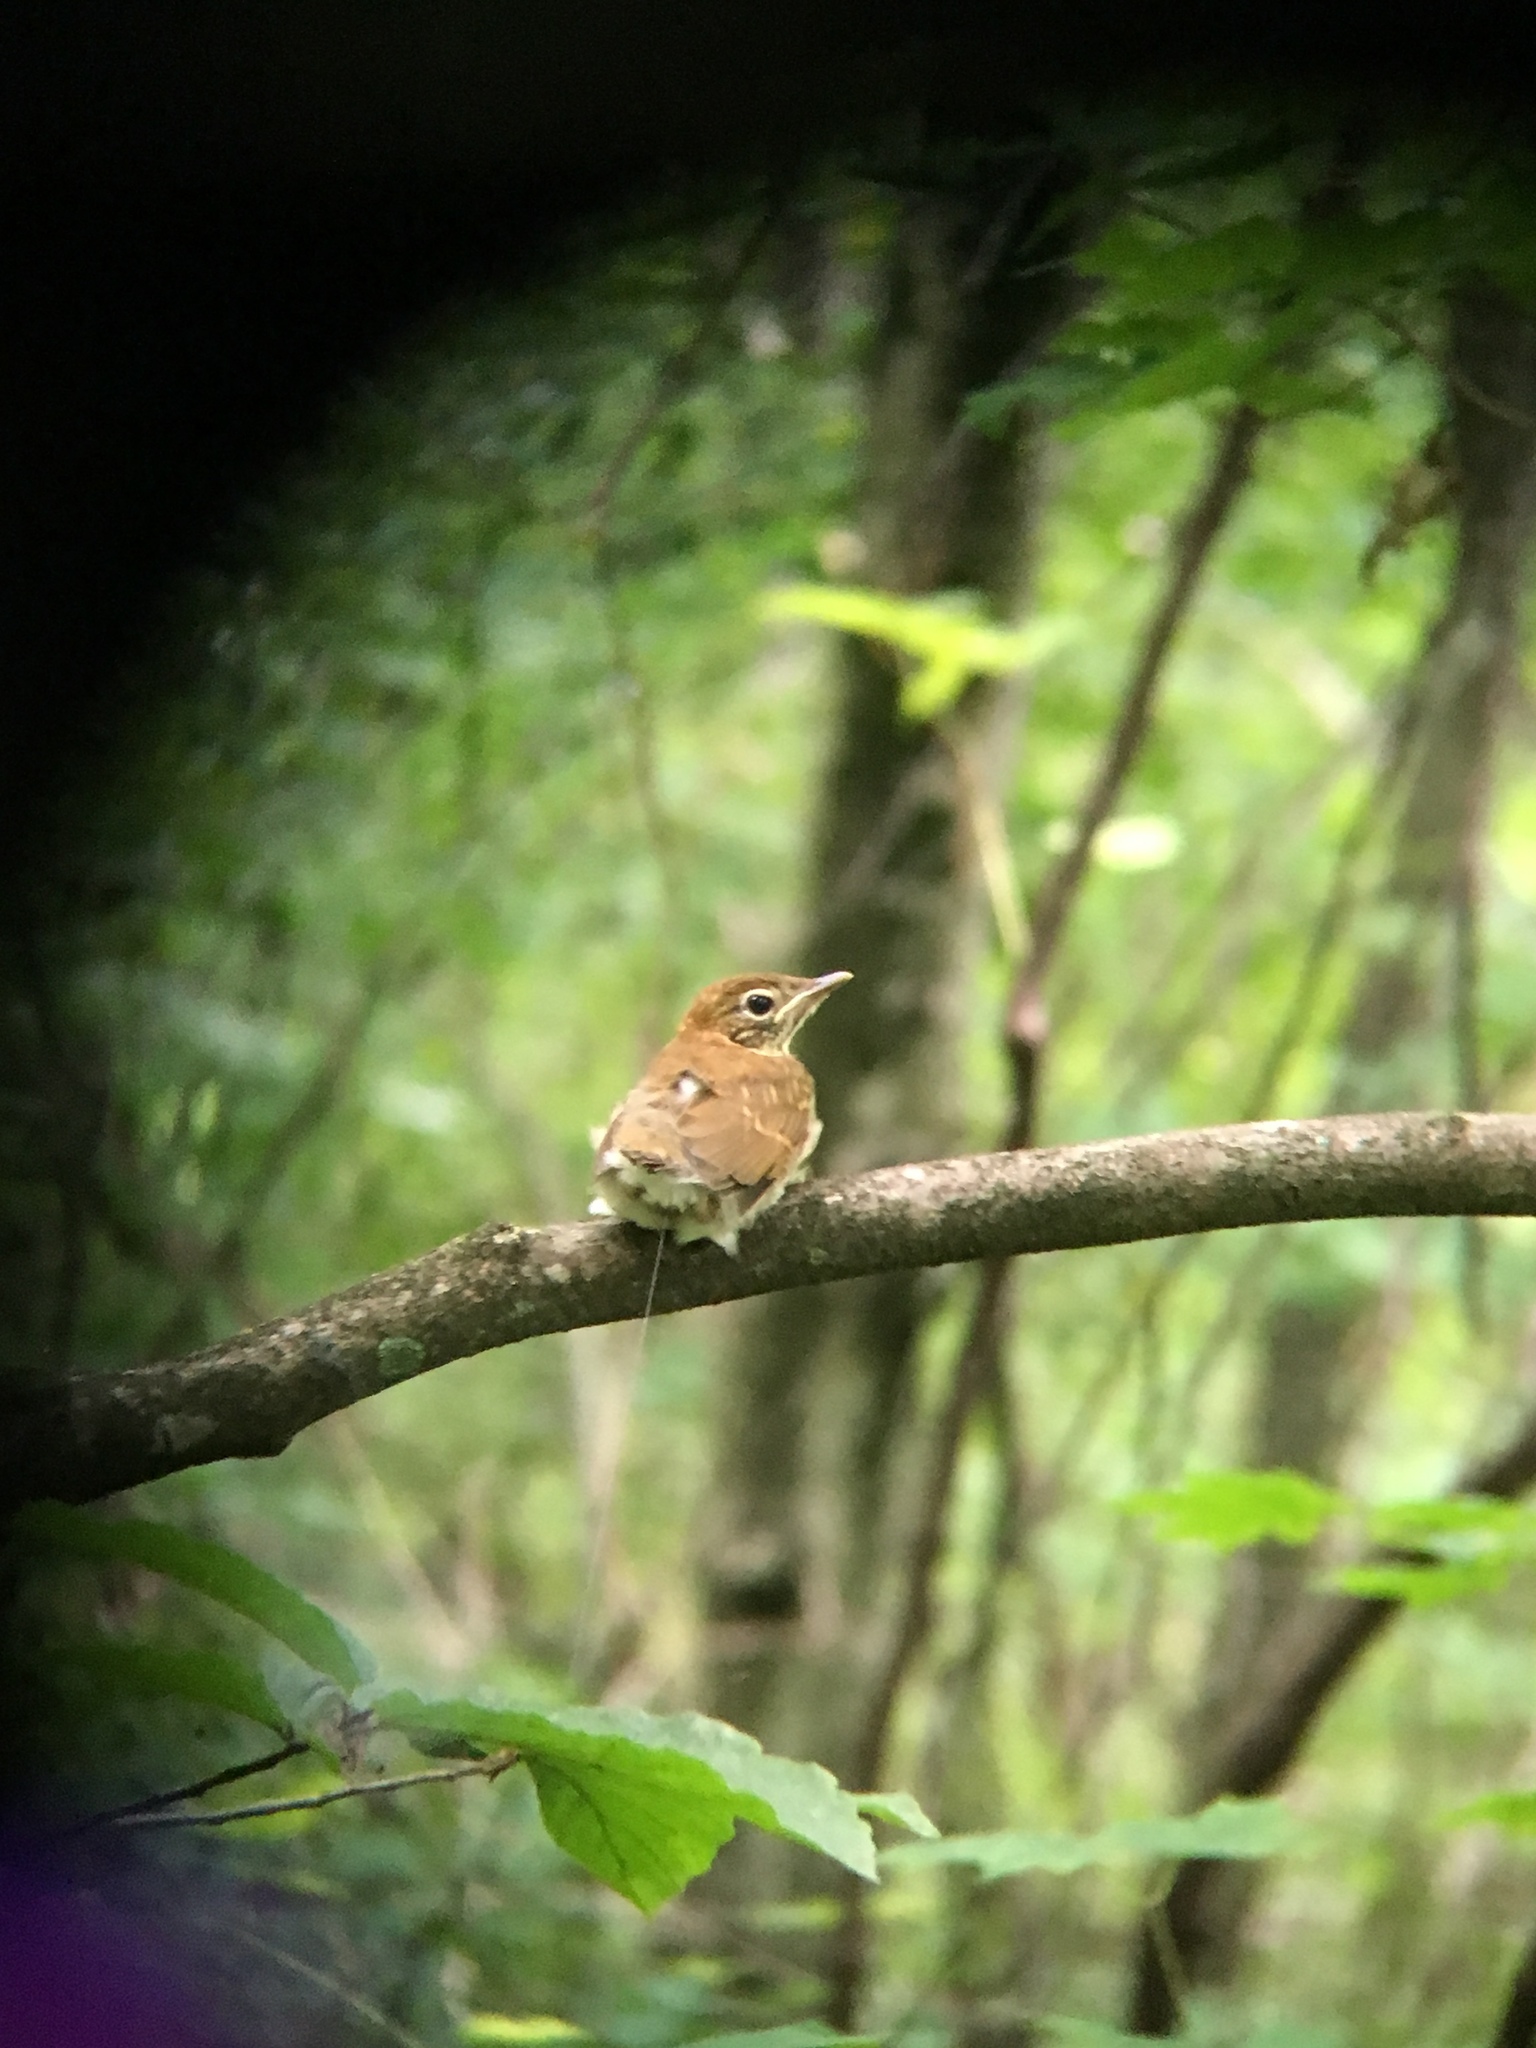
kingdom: Animalia
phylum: Chordata
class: Aves
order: Passeriformes
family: Turdidae
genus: Hylocichla
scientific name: Hylocichla mustelina
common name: Wood thrush
